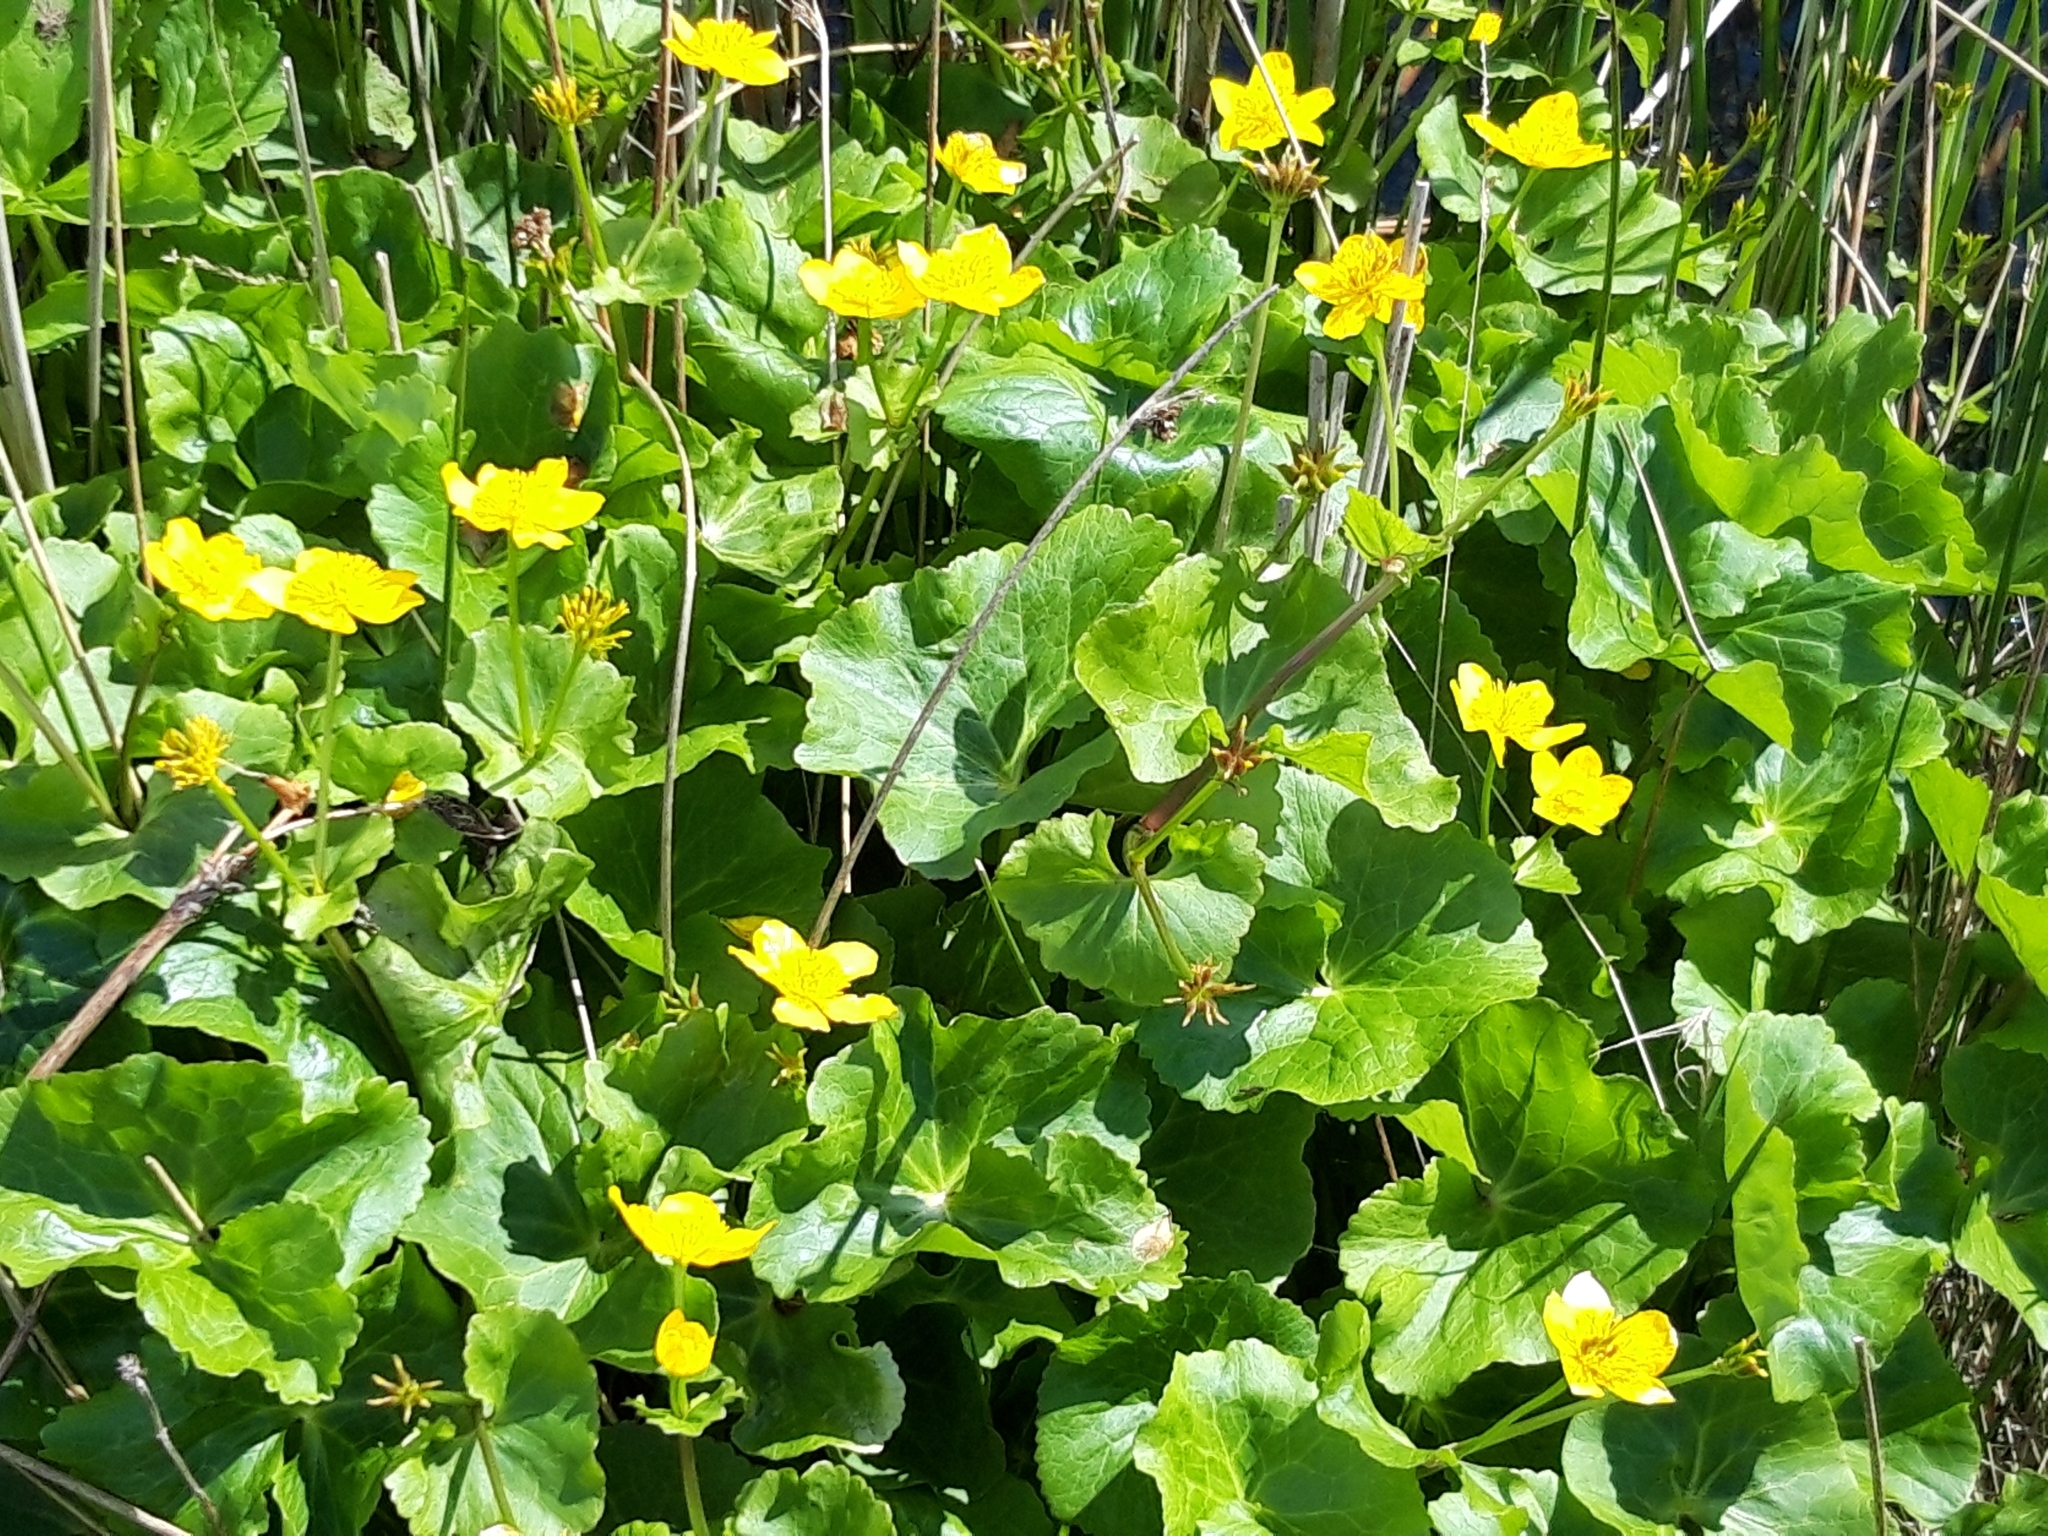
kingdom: Plantae
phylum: Tracheophyta
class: Magnoliopsida
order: Ranunculales
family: Ranunculaceae
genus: Caltha
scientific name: Caltha palustris
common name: Marsh marigold
